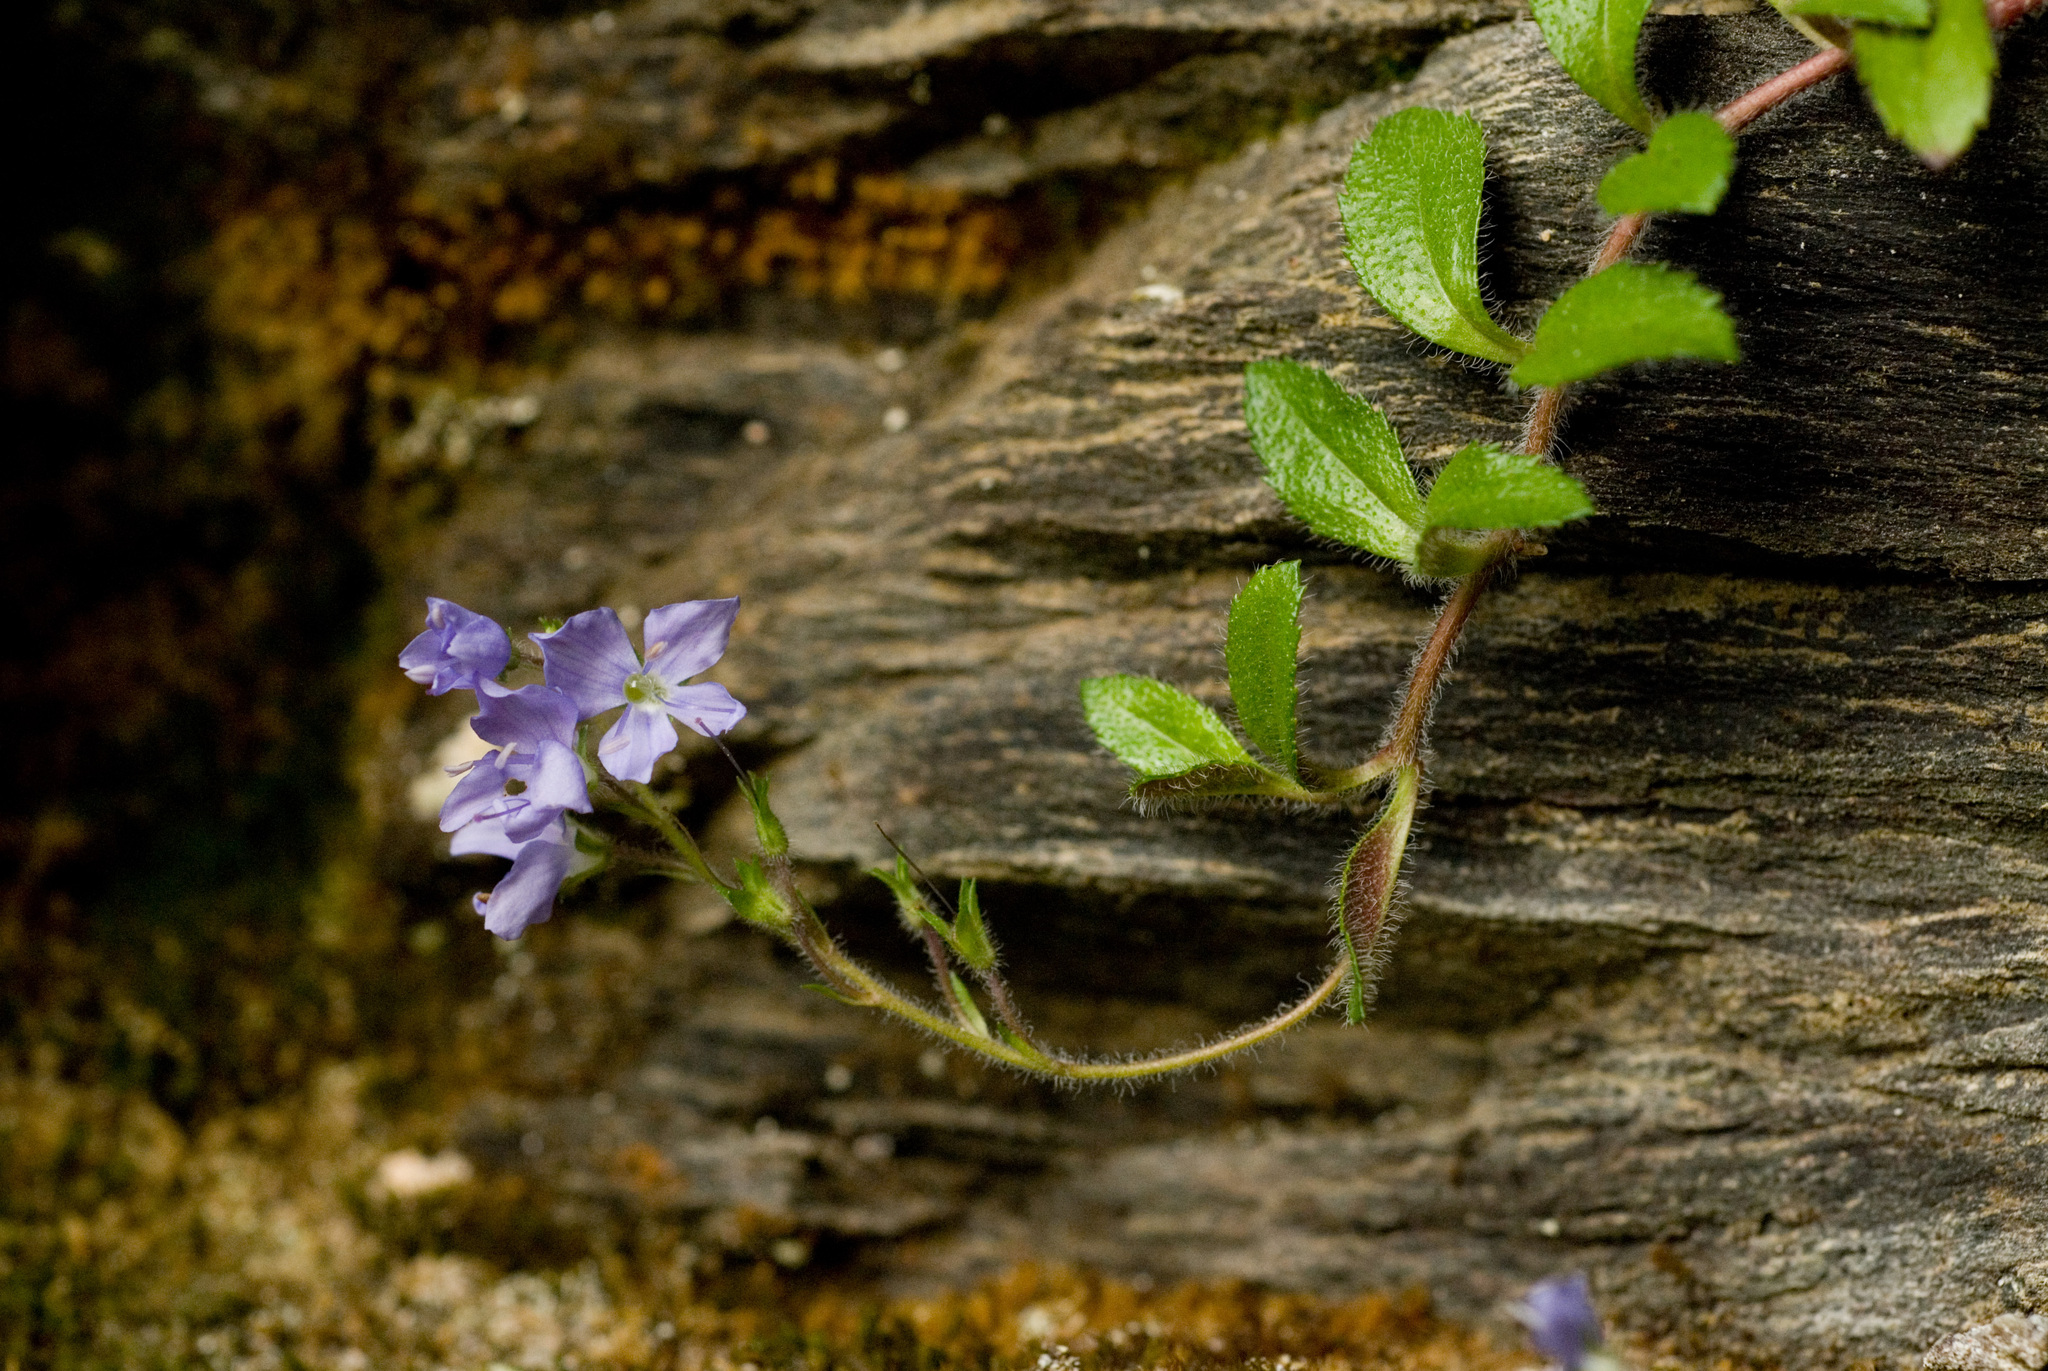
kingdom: Plantae
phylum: Tracheophyta
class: Magnoliopsida
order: Lamiales
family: Plantaginaceae
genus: Veronica
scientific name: Veronica morrisonicola
